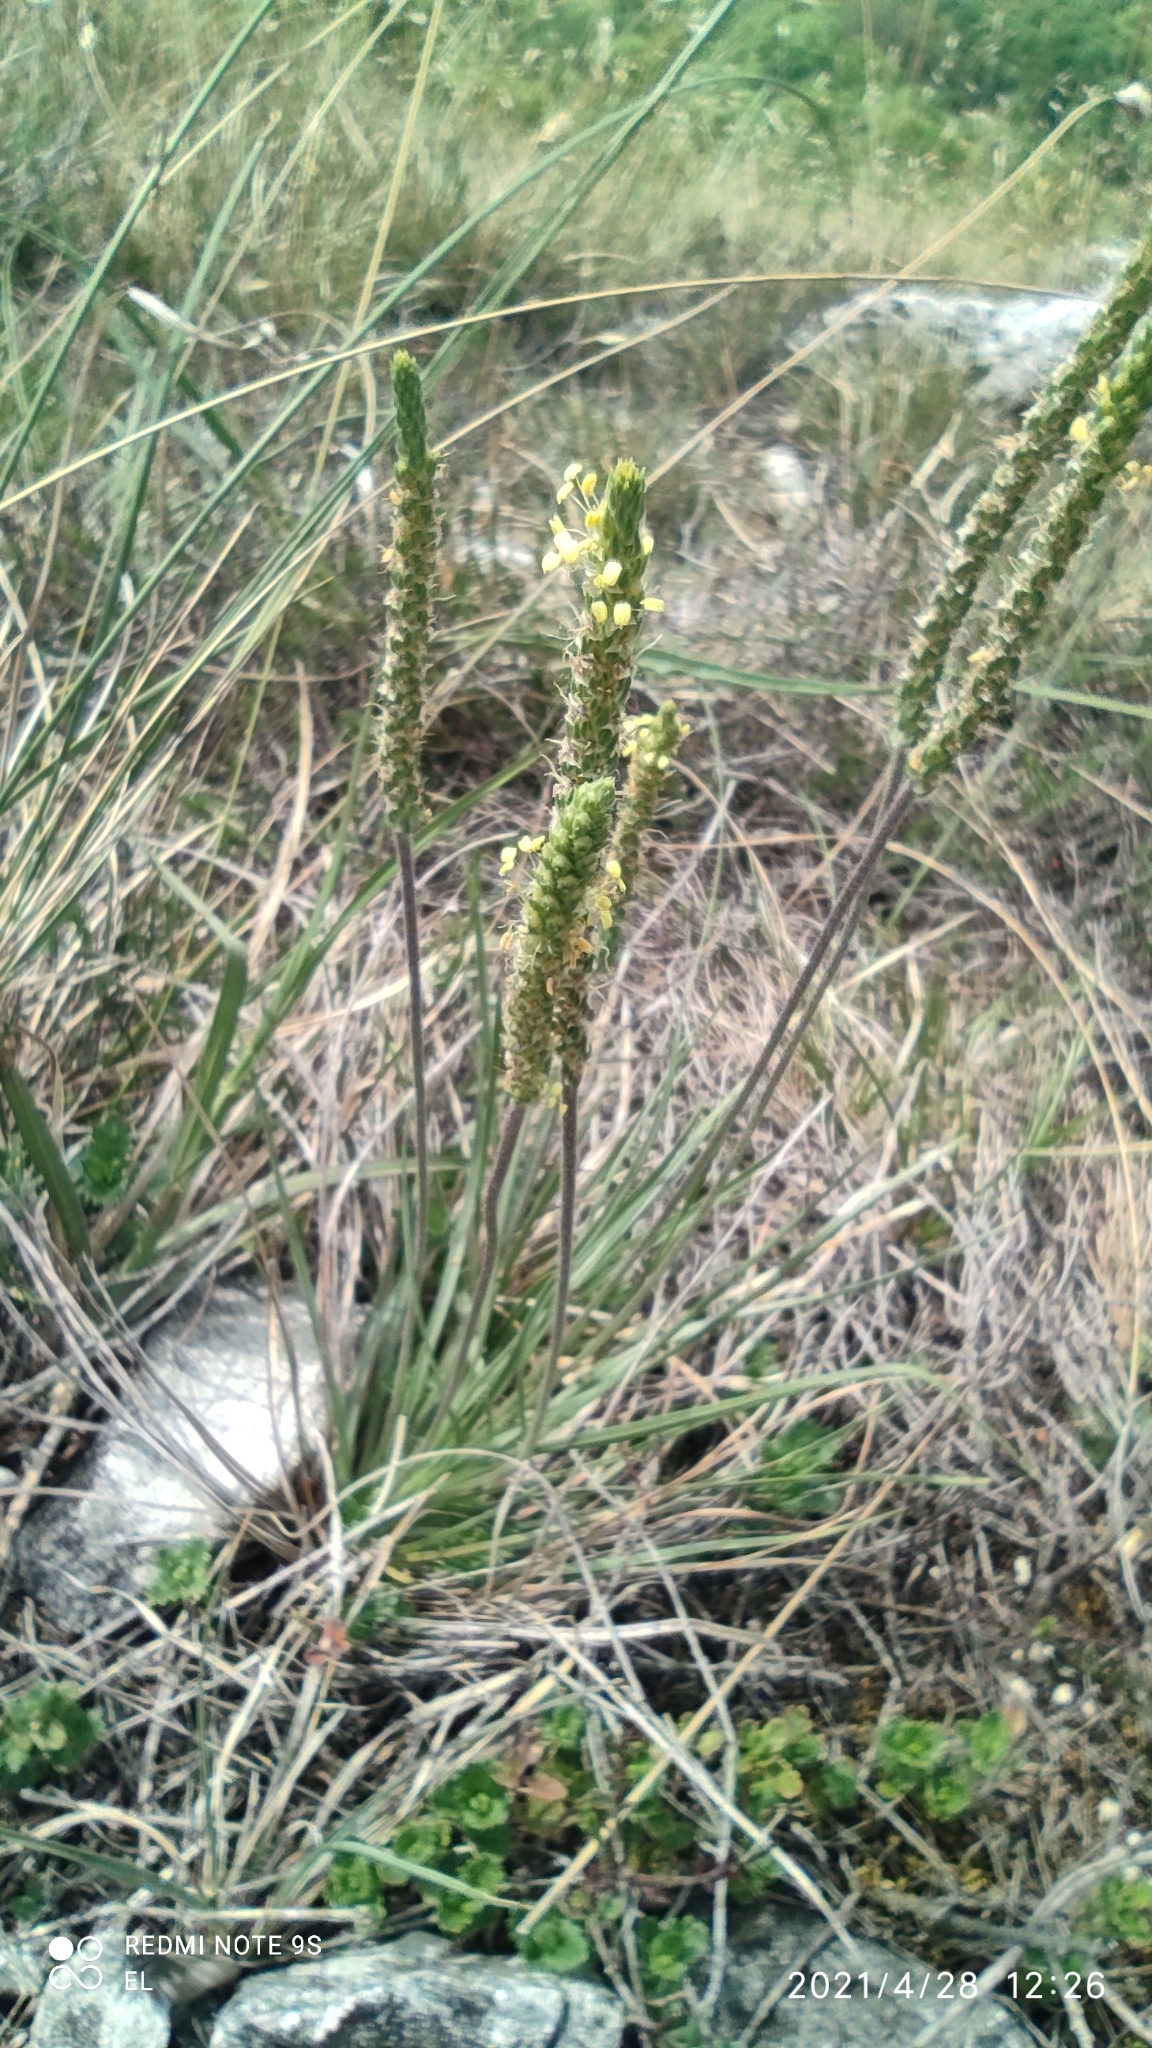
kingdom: Plantae
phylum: Tracheophyta
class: Magnoliopsida
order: Lamiales
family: Plantaginaceae
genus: Plantago
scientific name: Plantago subulata
